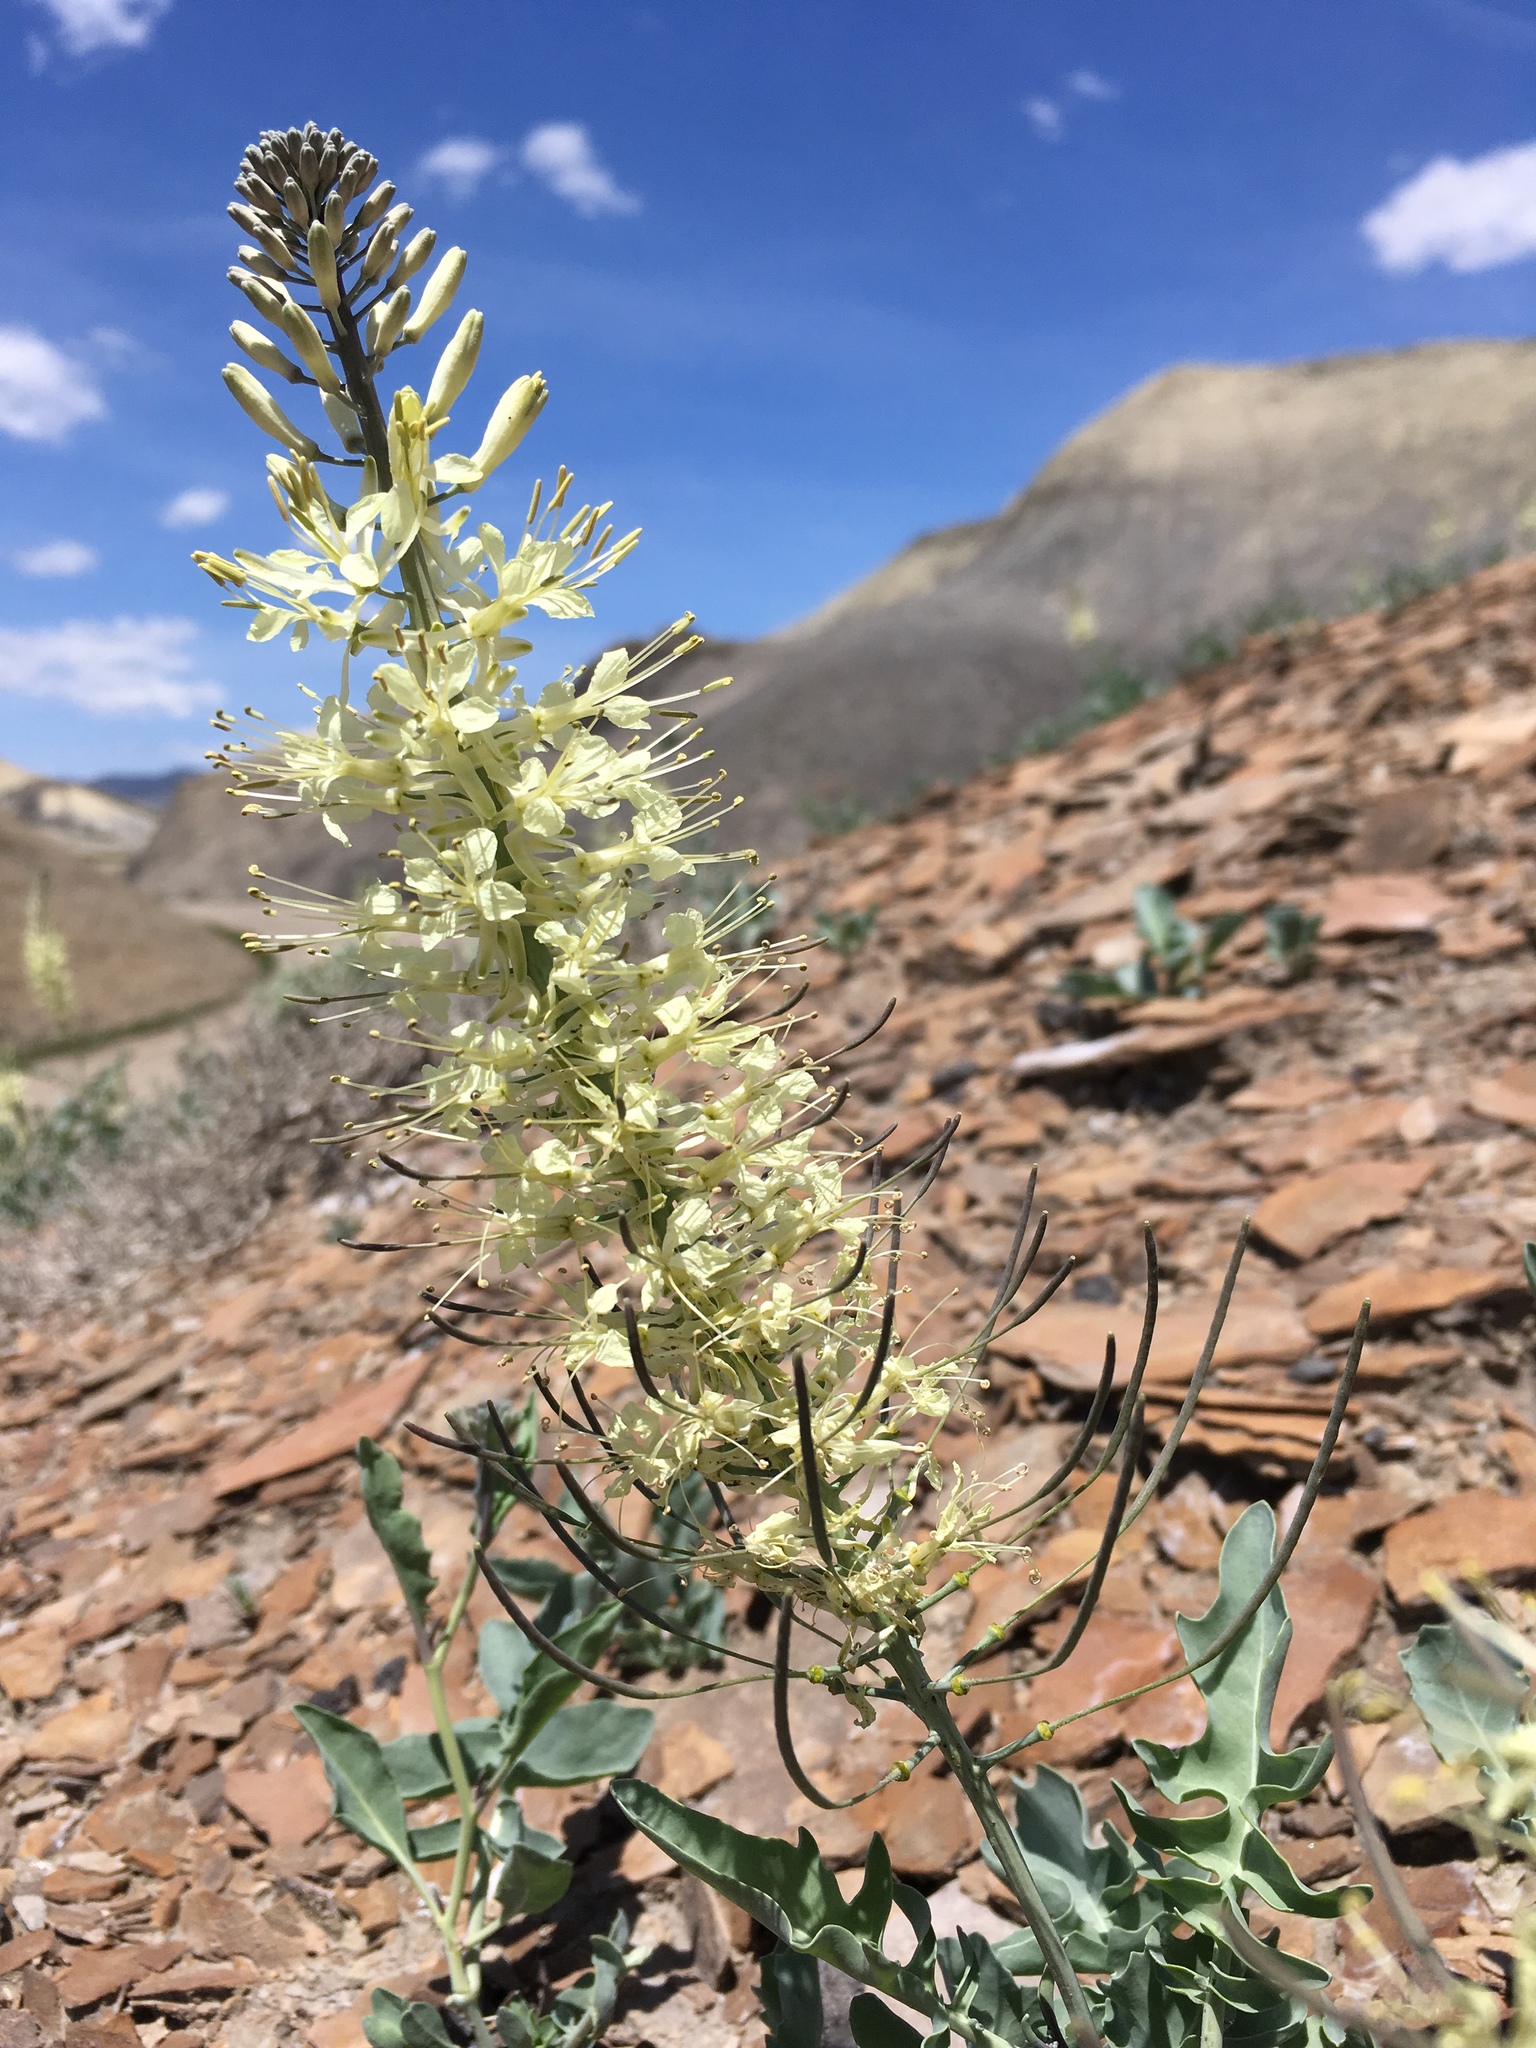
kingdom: Plantae
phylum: Tracheophyta
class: Magnoliopsida
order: Brassicales
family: Brassicaceae
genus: Stanleya
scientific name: Stanleya albescens
